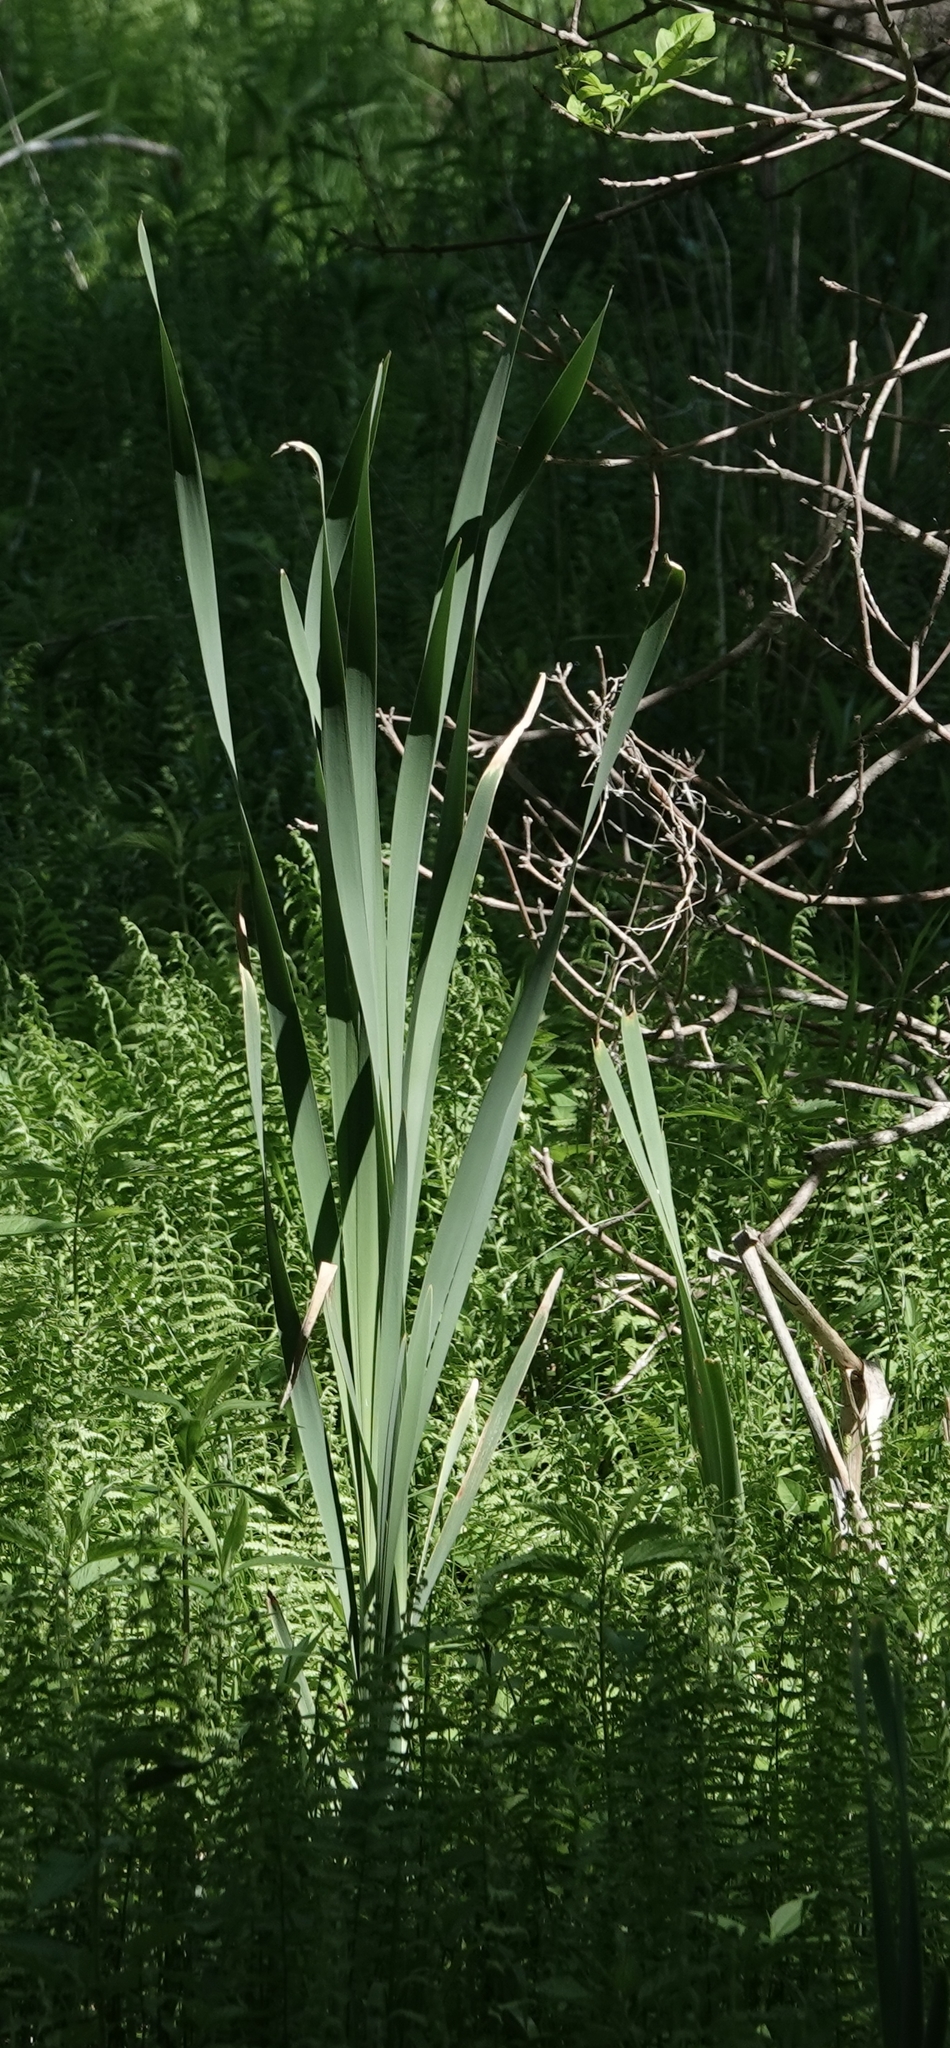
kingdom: Plantae
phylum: Tracheophyta
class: Liliopsida
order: Poales
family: Typhaceae
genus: Typha
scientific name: Typha latifolia
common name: Broadleaf cattail
